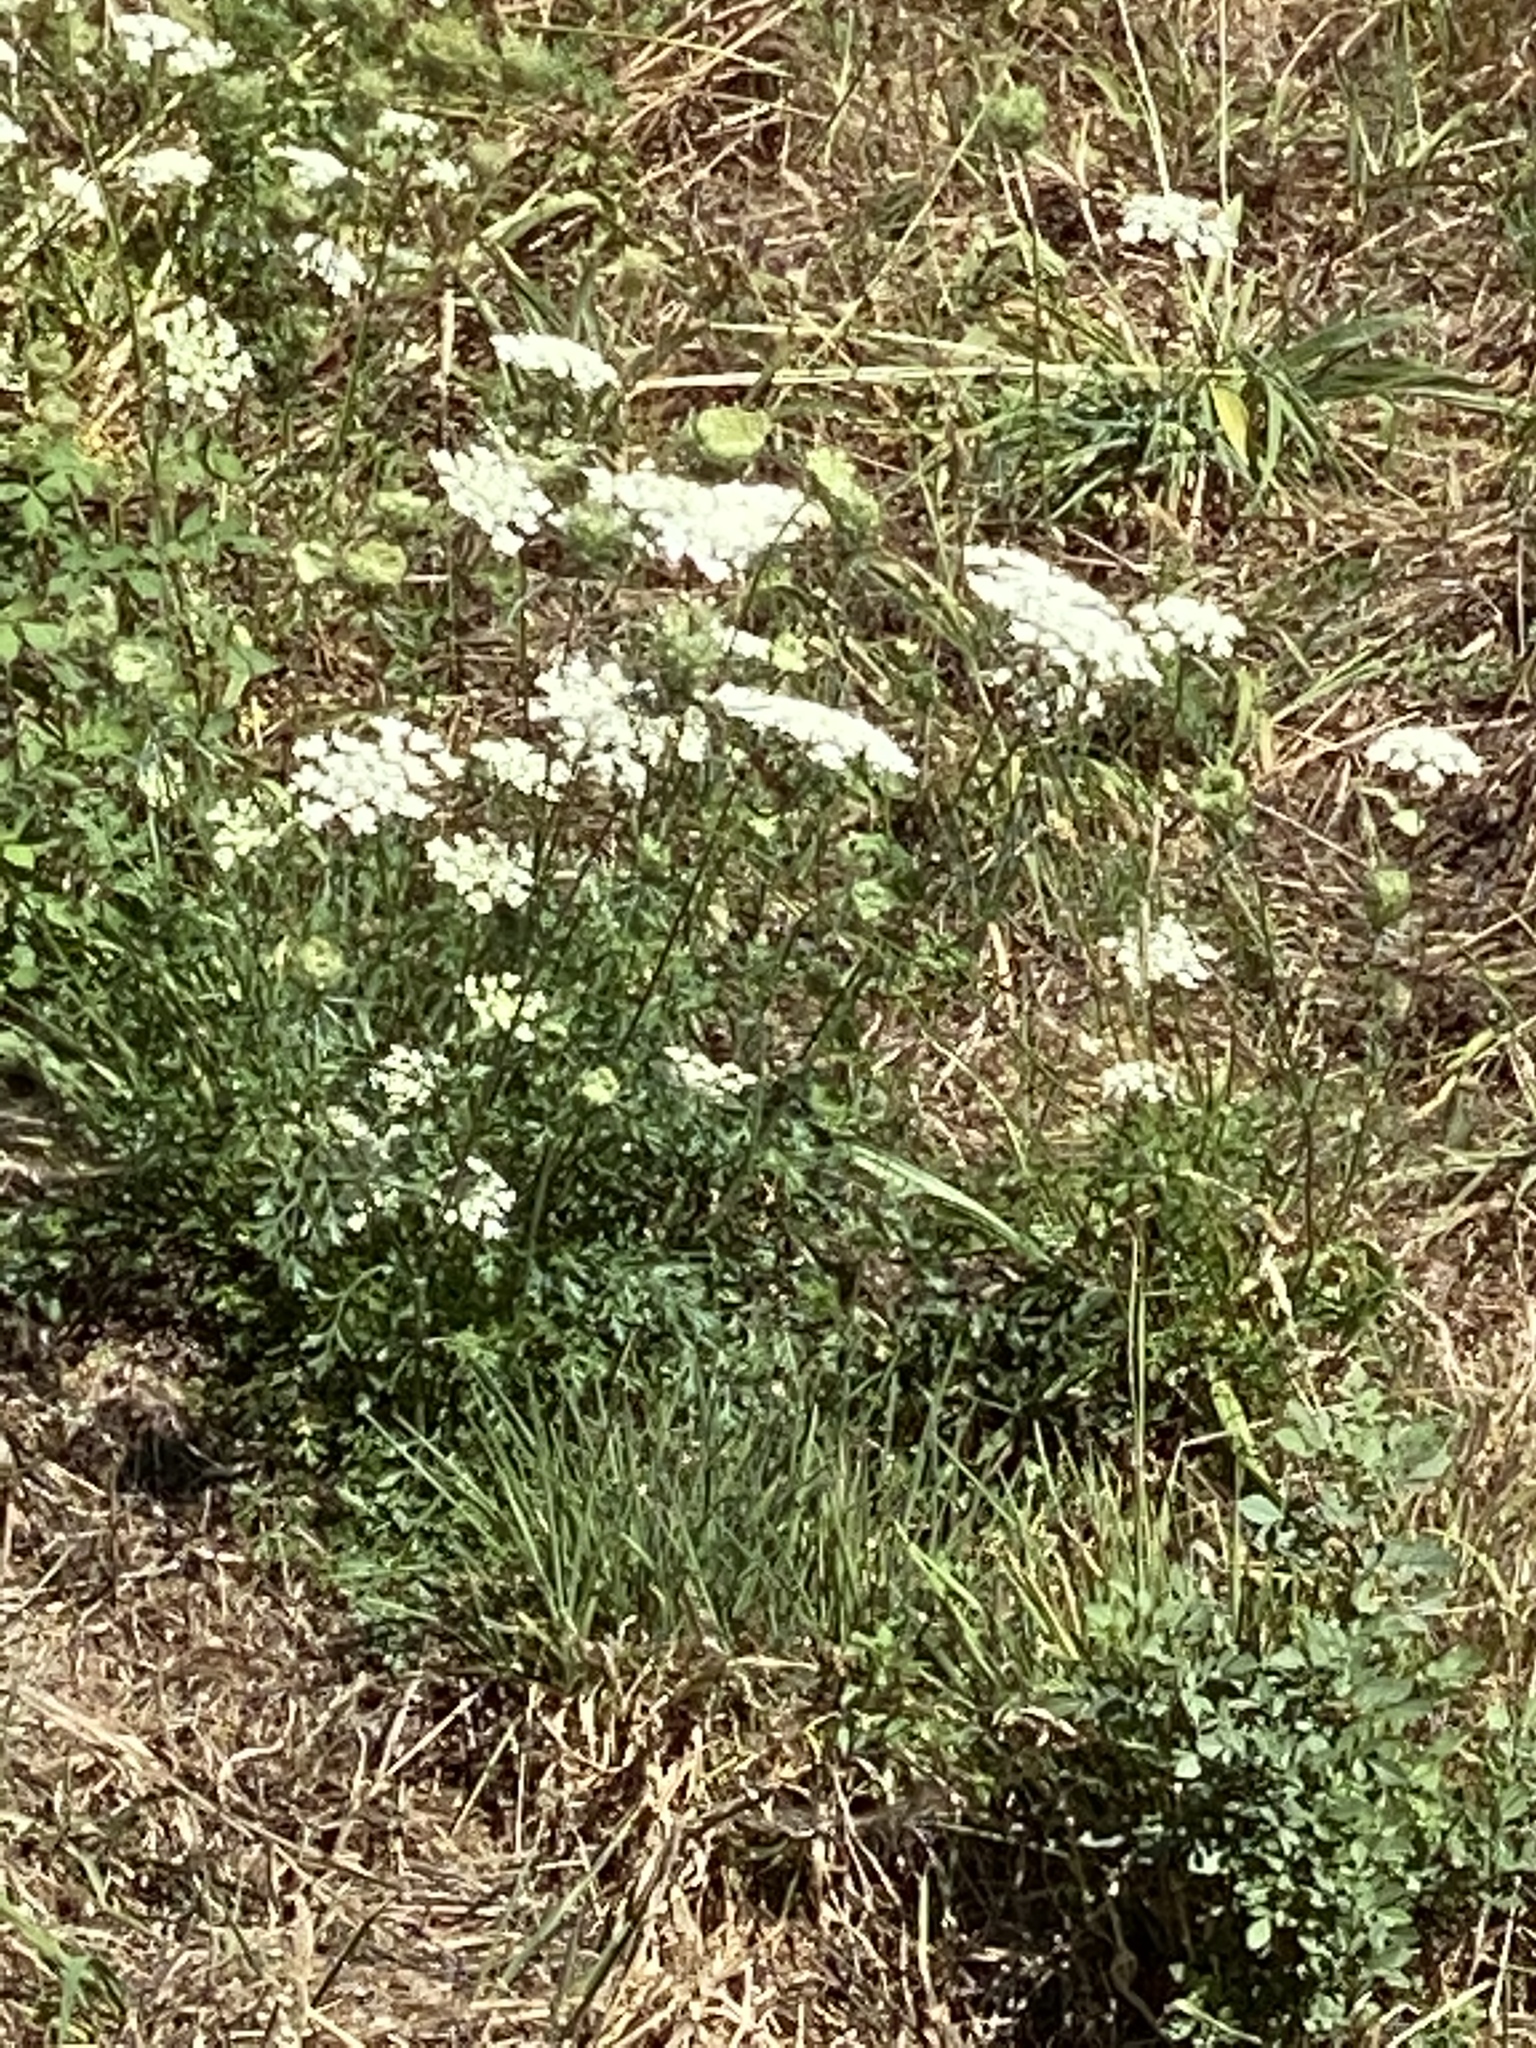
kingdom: Plantae
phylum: Tracheophyta
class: Magnoliopsida
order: Apiales
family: Apiaceae
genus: Daucus
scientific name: Daucus carota
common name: Wild carrot
